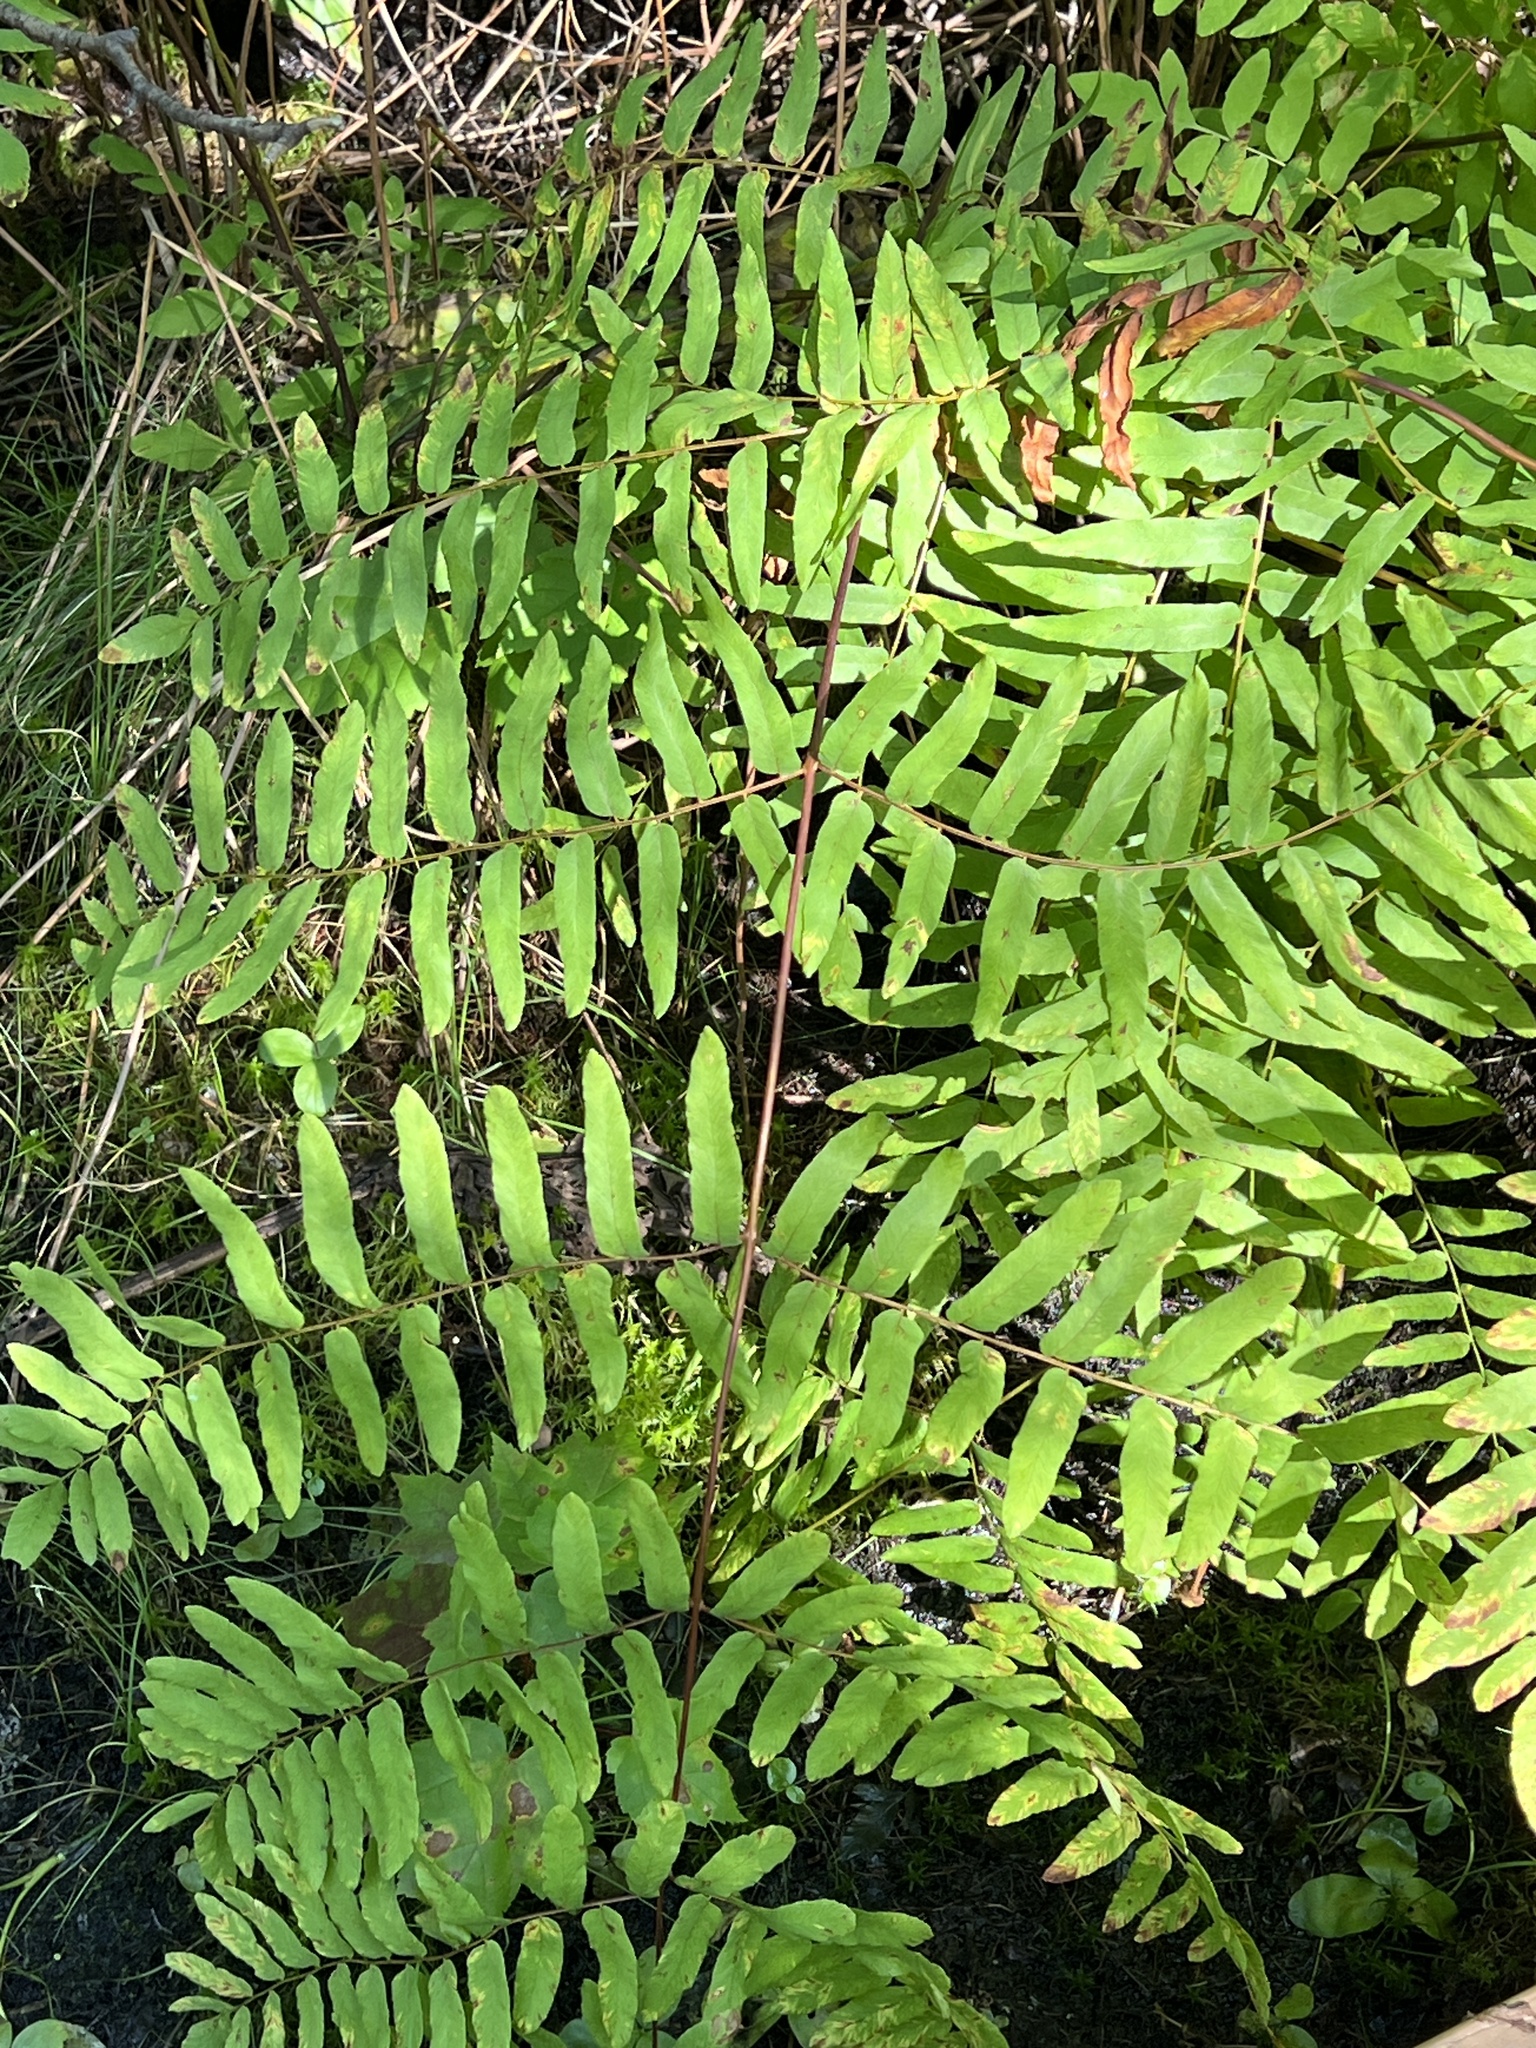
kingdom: Plantae
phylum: Tracheophyta
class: Polypodiopsida
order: Osmundales
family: Osmundaceae
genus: Osmunda
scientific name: Osmunda spectabilis
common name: American royal fern
